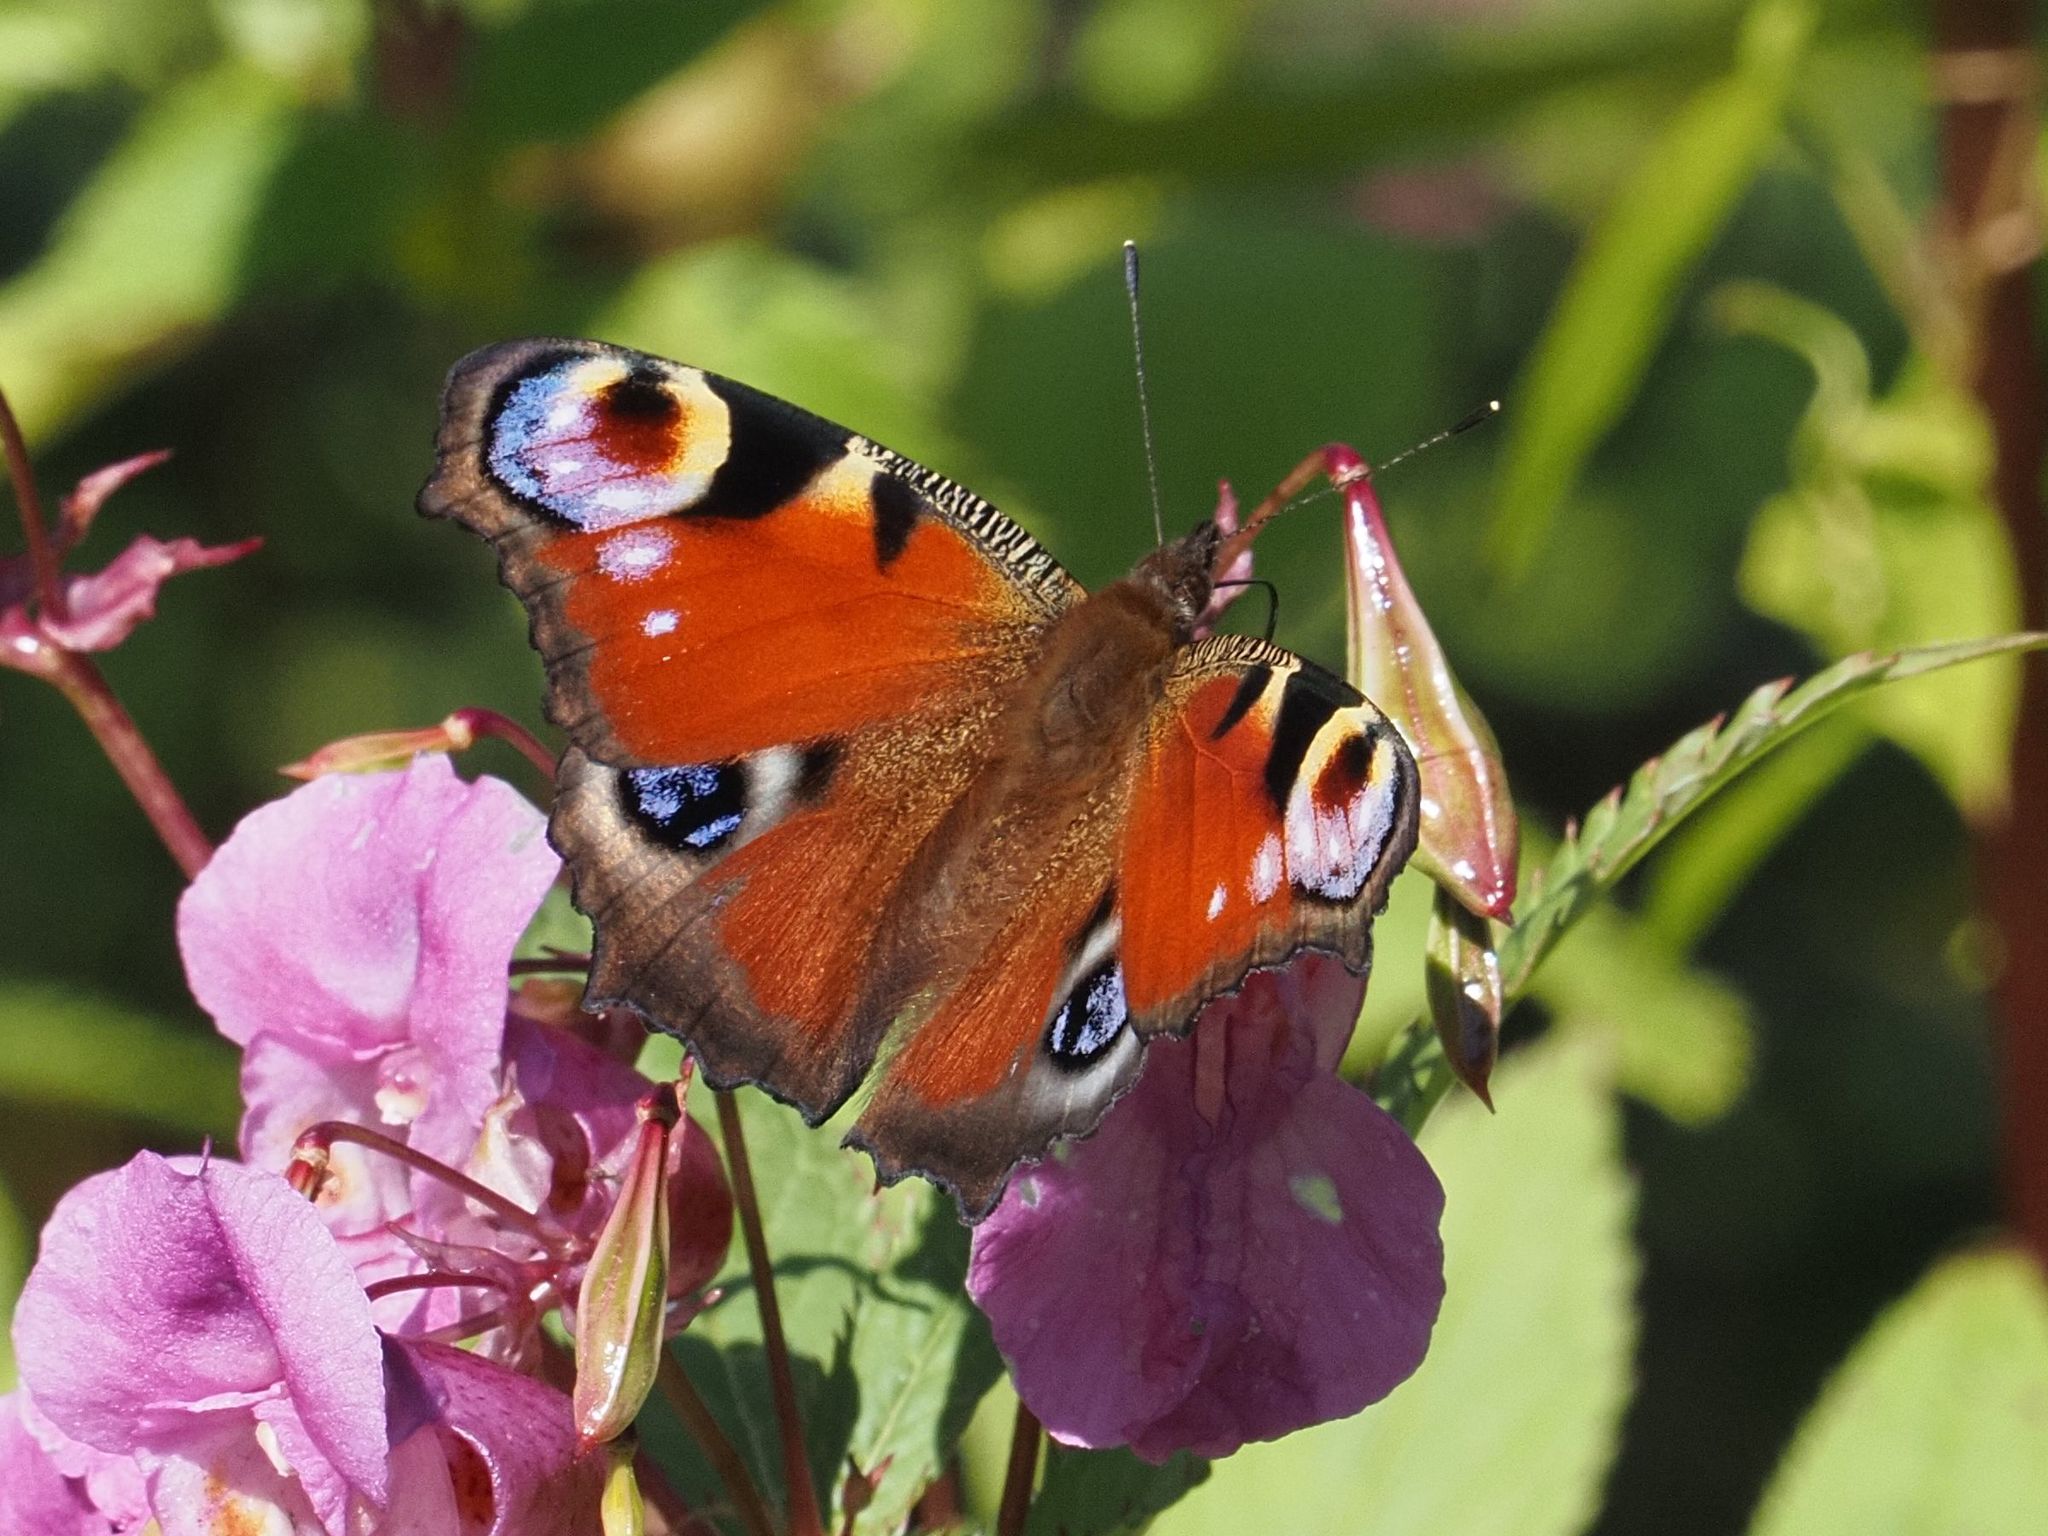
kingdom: Animalia
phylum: Arthropoda
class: Insecta
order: Lepidoptera
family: Nymphalidae
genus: Aglais
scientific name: Aglais io
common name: Peacock
